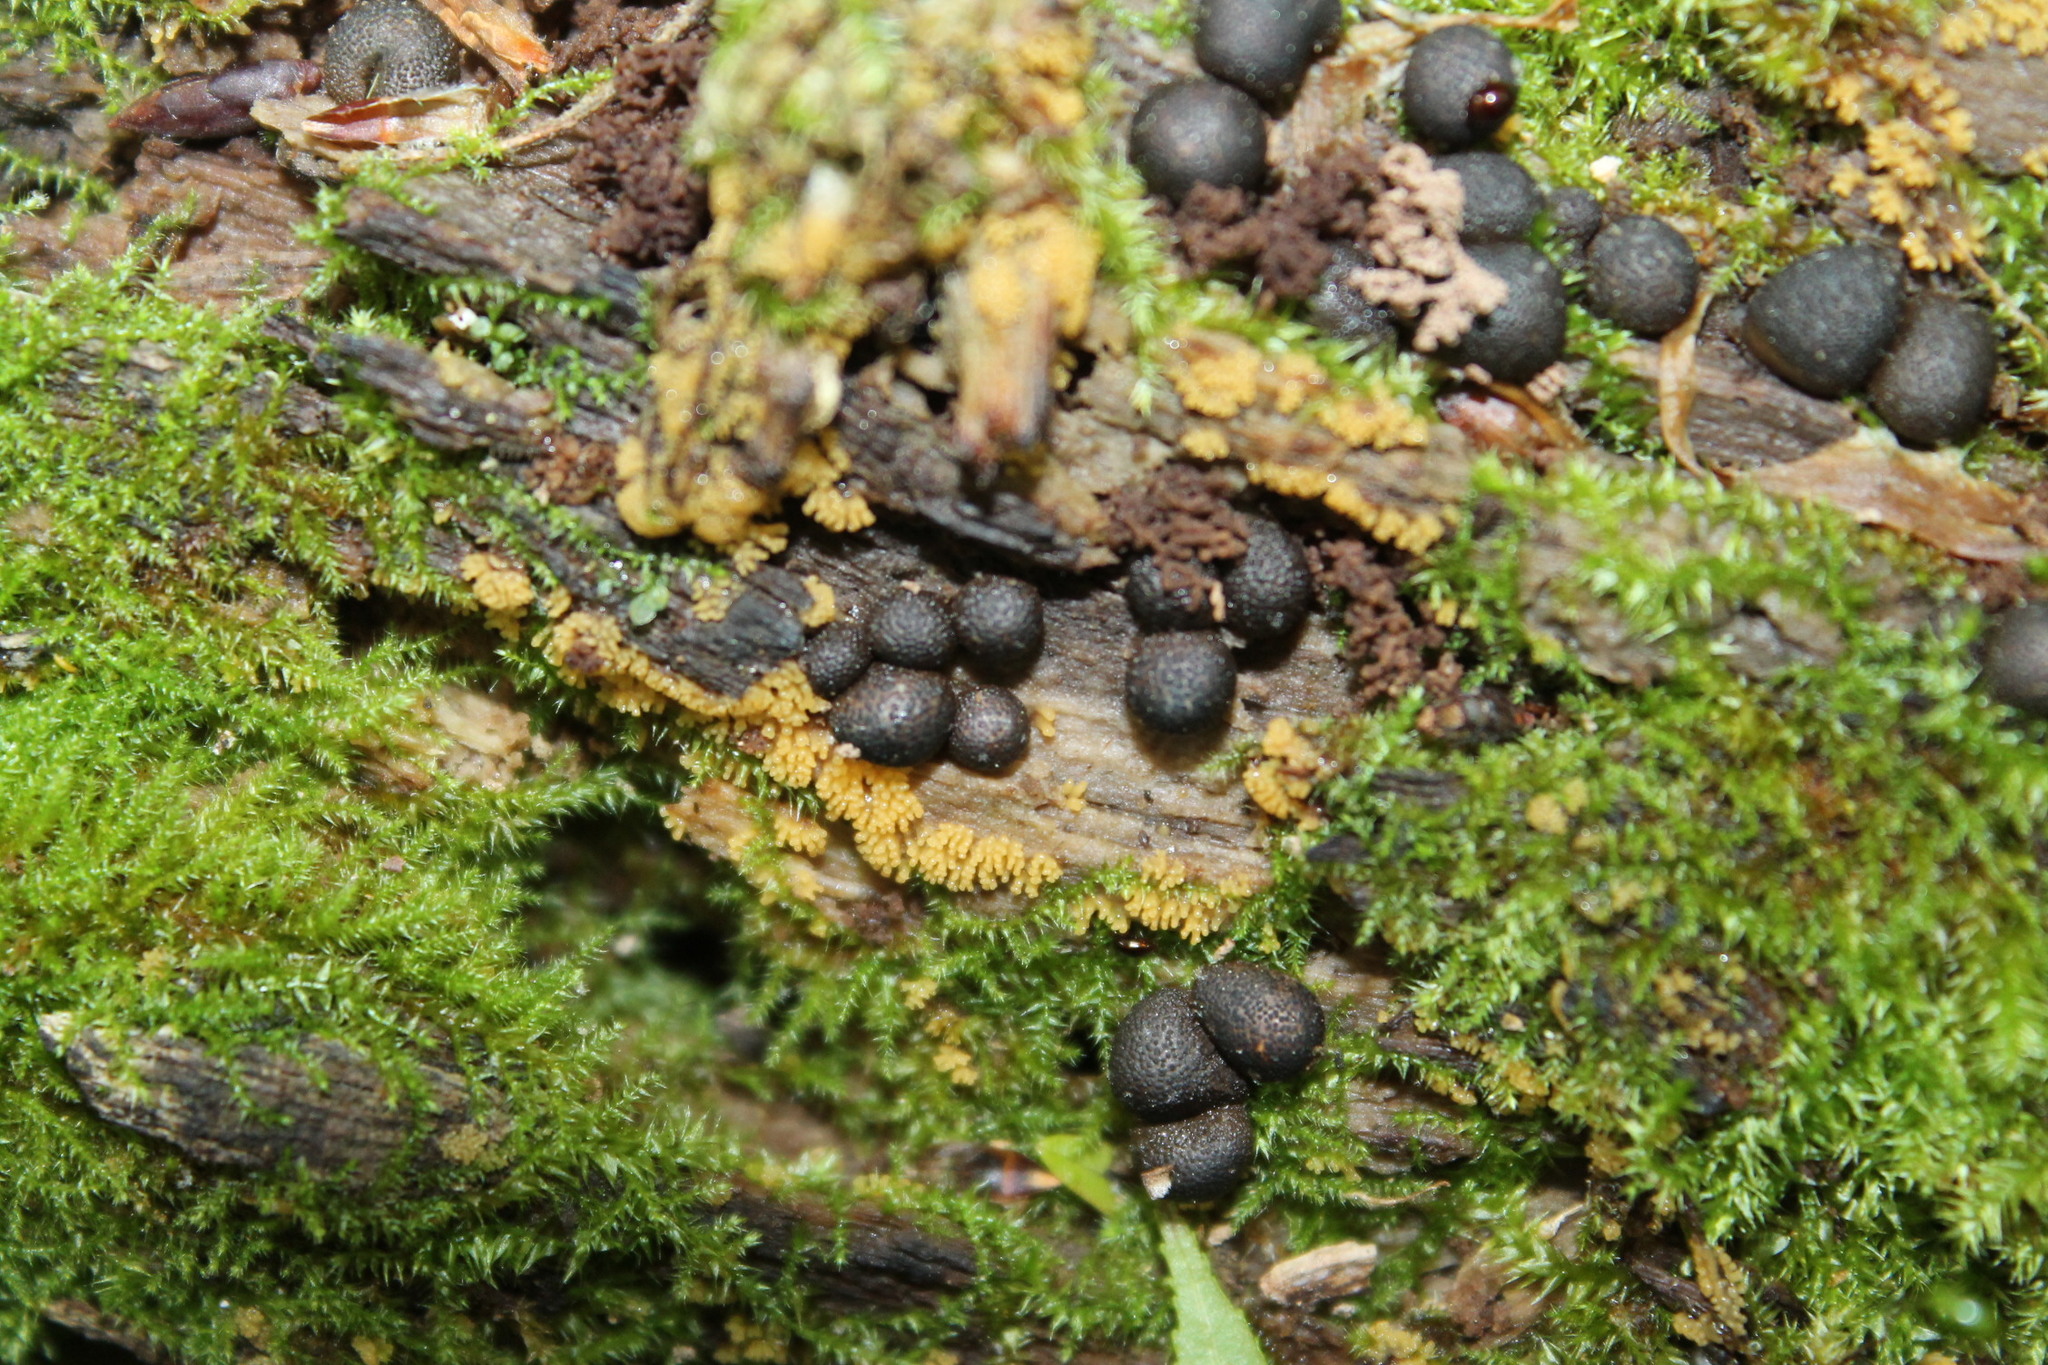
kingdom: Protozoa
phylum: Mycetozoa
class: Myxomycetes
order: Cribrariales
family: Tubiferaceae
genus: Lycogala
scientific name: Lycogala epidendrum
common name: Wolf's milk
